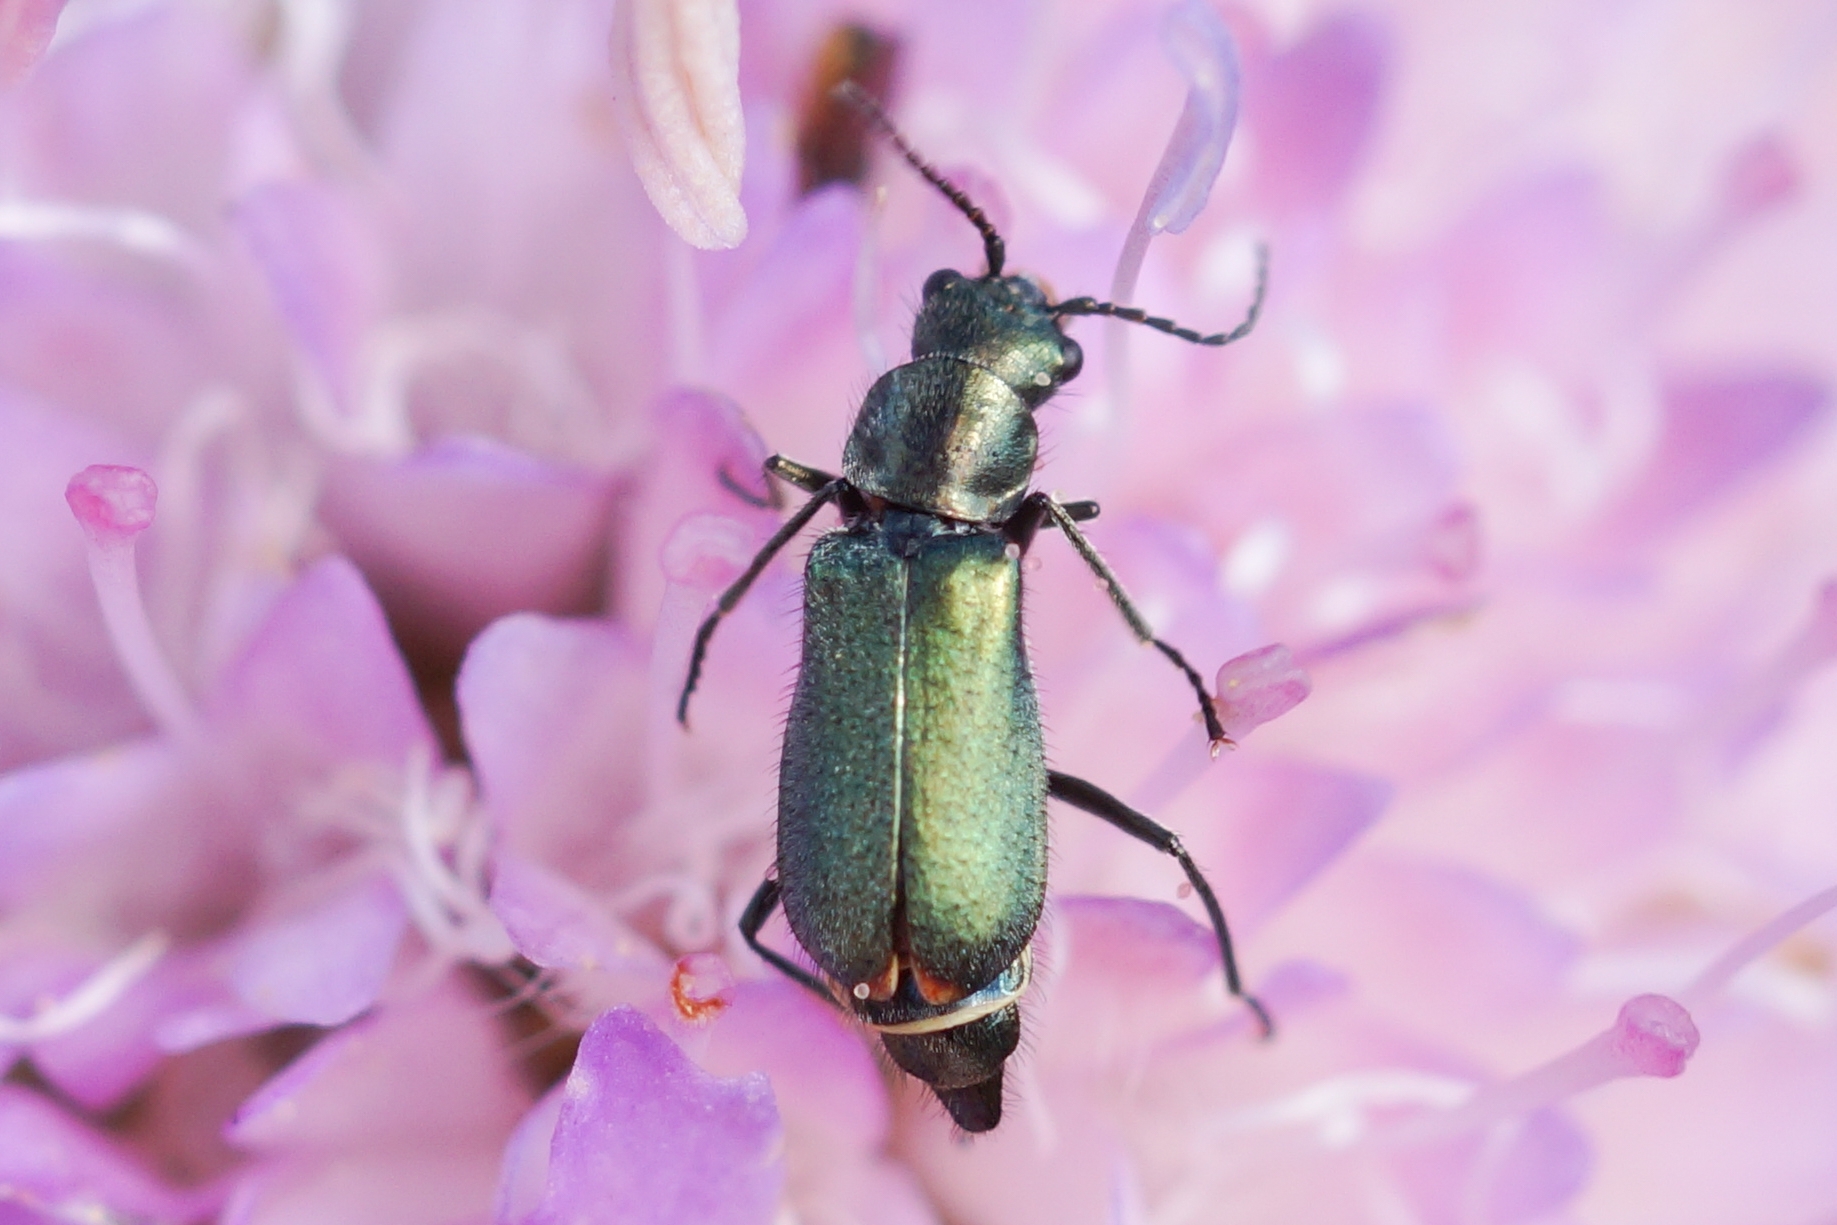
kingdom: Animalia
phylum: Arthropoda
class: Insecta
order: Coleoptera
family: Malachiidae
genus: Cordylepherus
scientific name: Cordylepherus viridis
